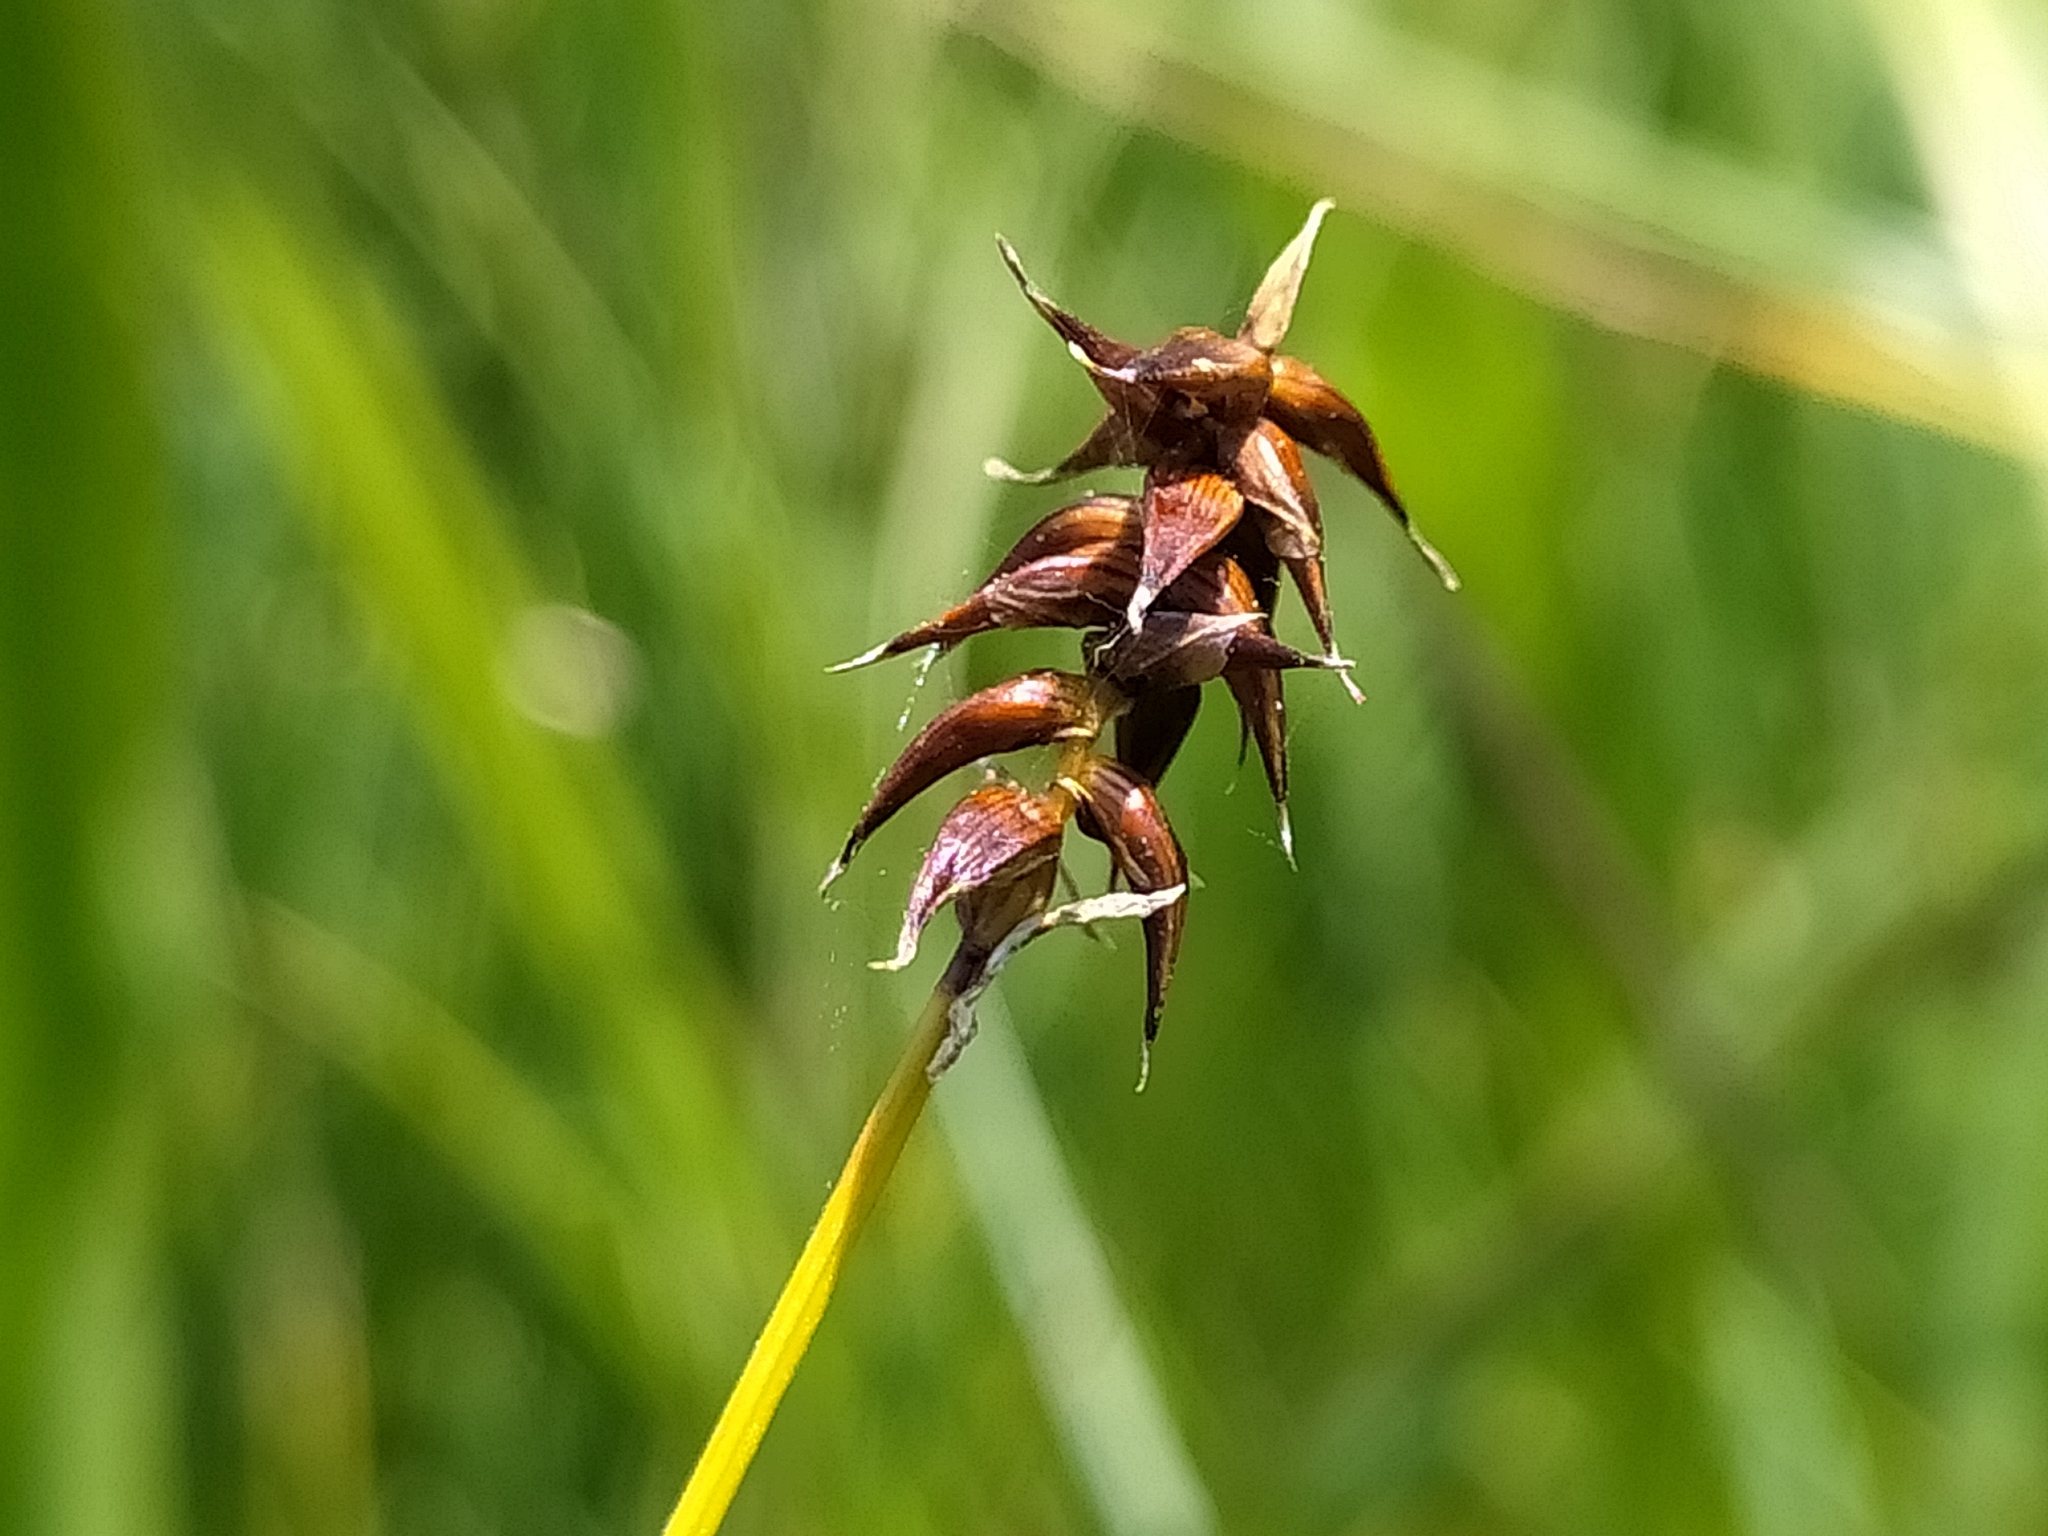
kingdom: Plantae
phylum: Tracheophyta
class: Liliopsida
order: Poales
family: Cyperaceae
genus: Carex
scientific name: Carex davalliana
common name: Davall's sedge
